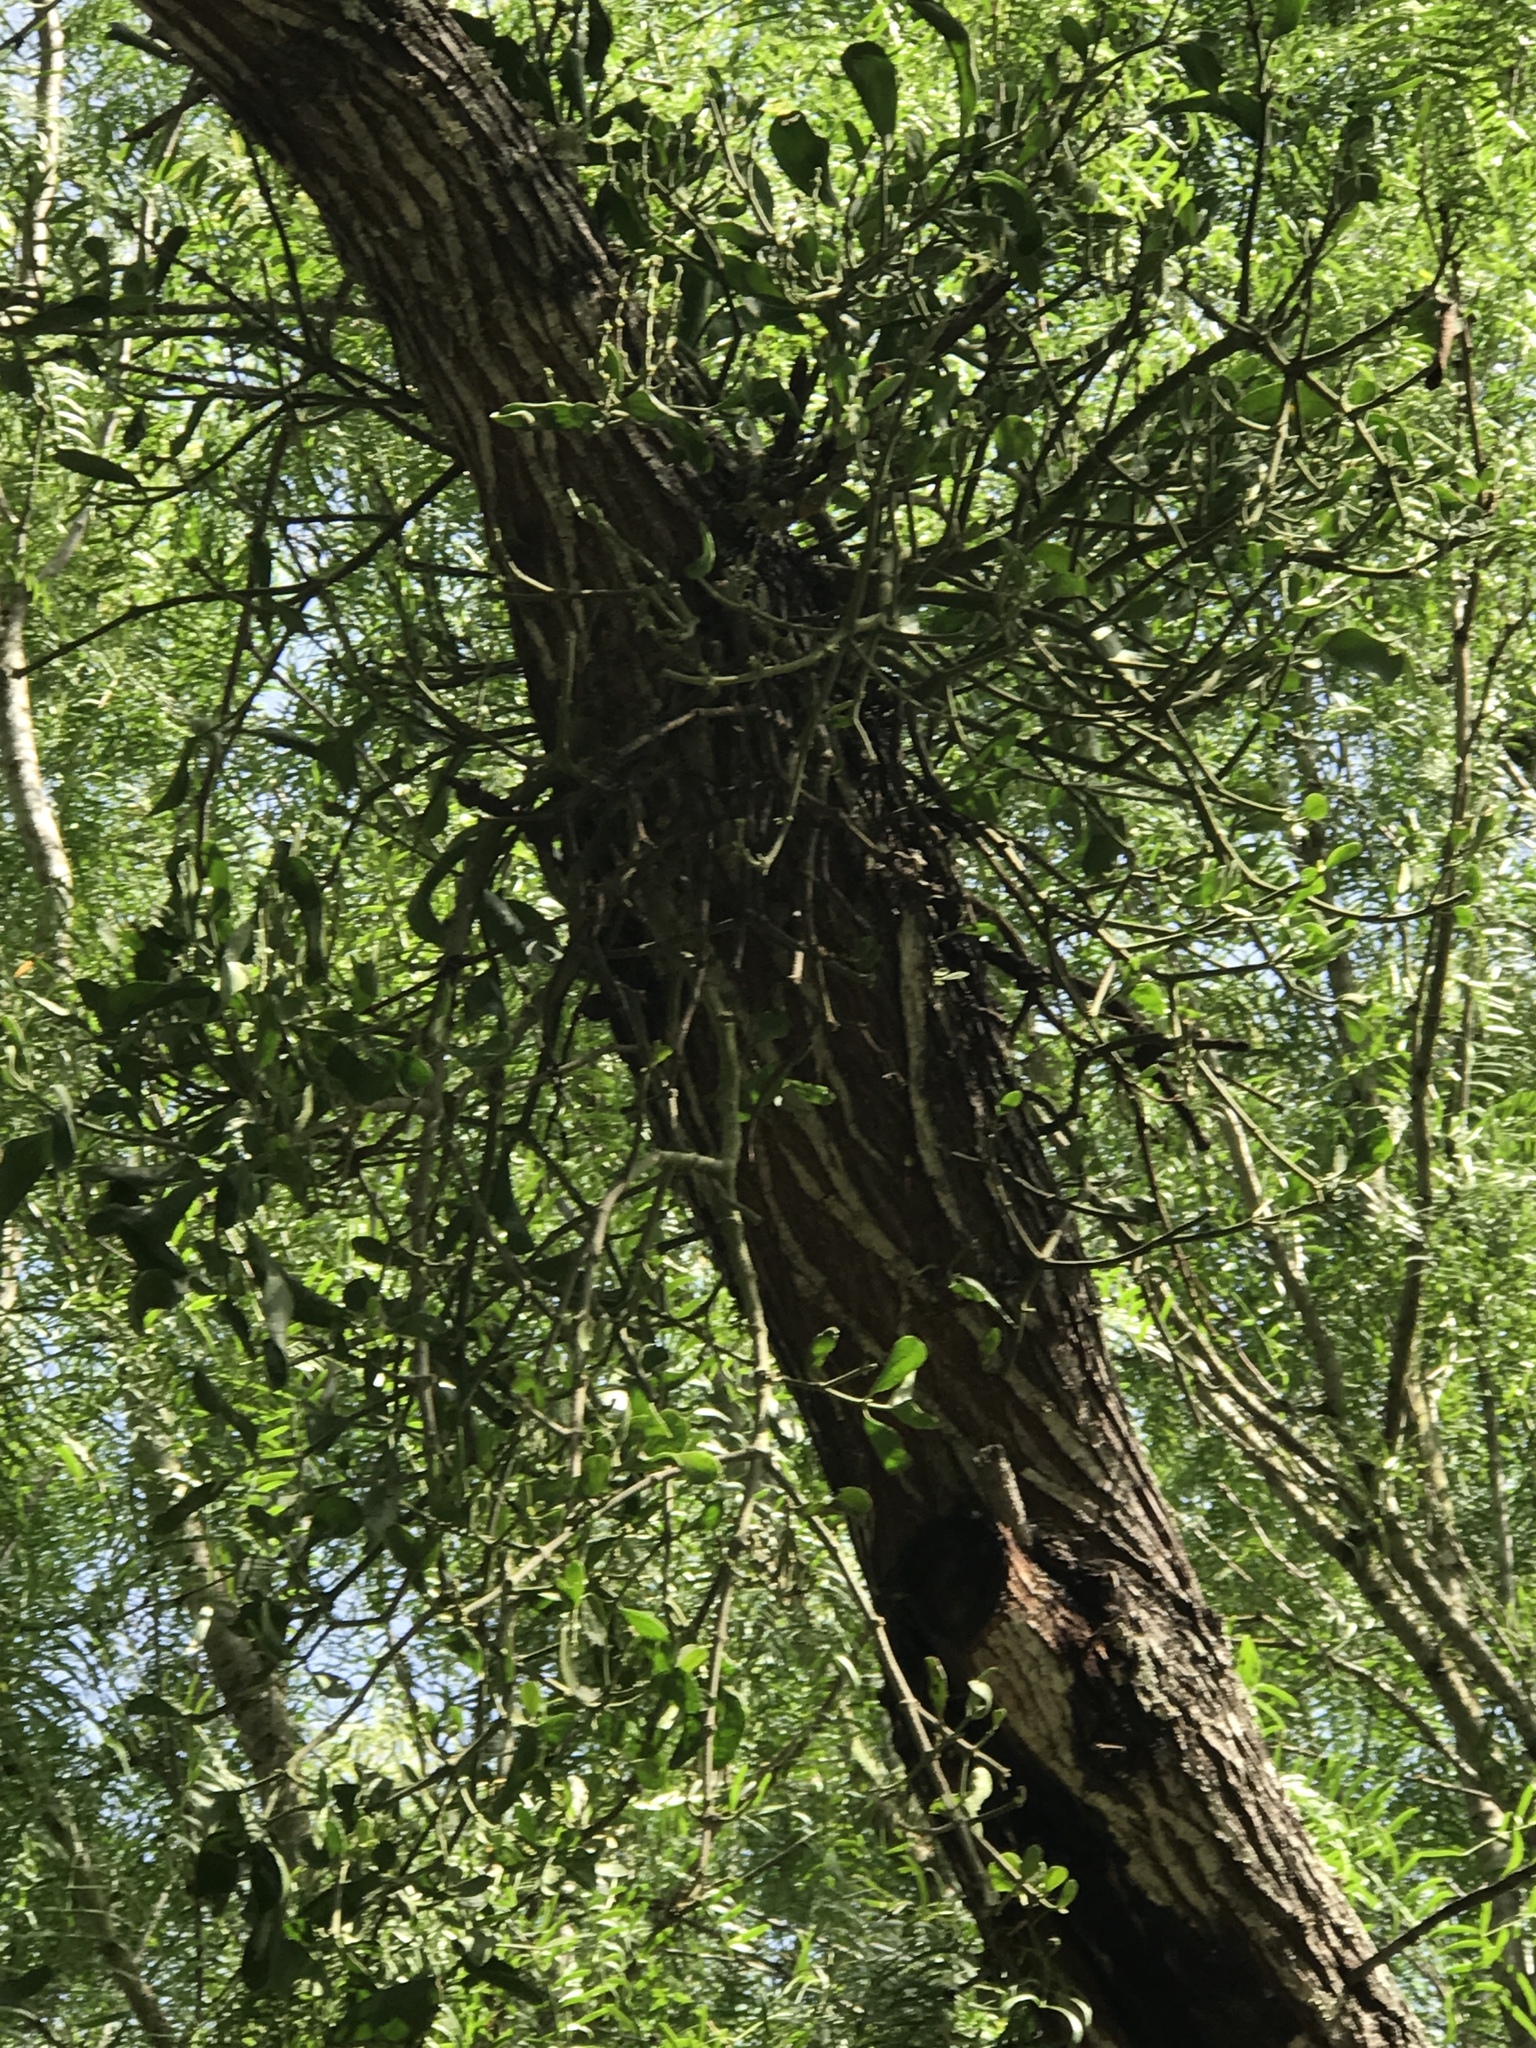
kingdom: Plantae
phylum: Tracheophyta
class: Magnoliopsida
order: Santalales
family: Viscaceae
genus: Phoradendron
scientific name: Phoradendron leucarpum
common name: Pacific mistletoe
